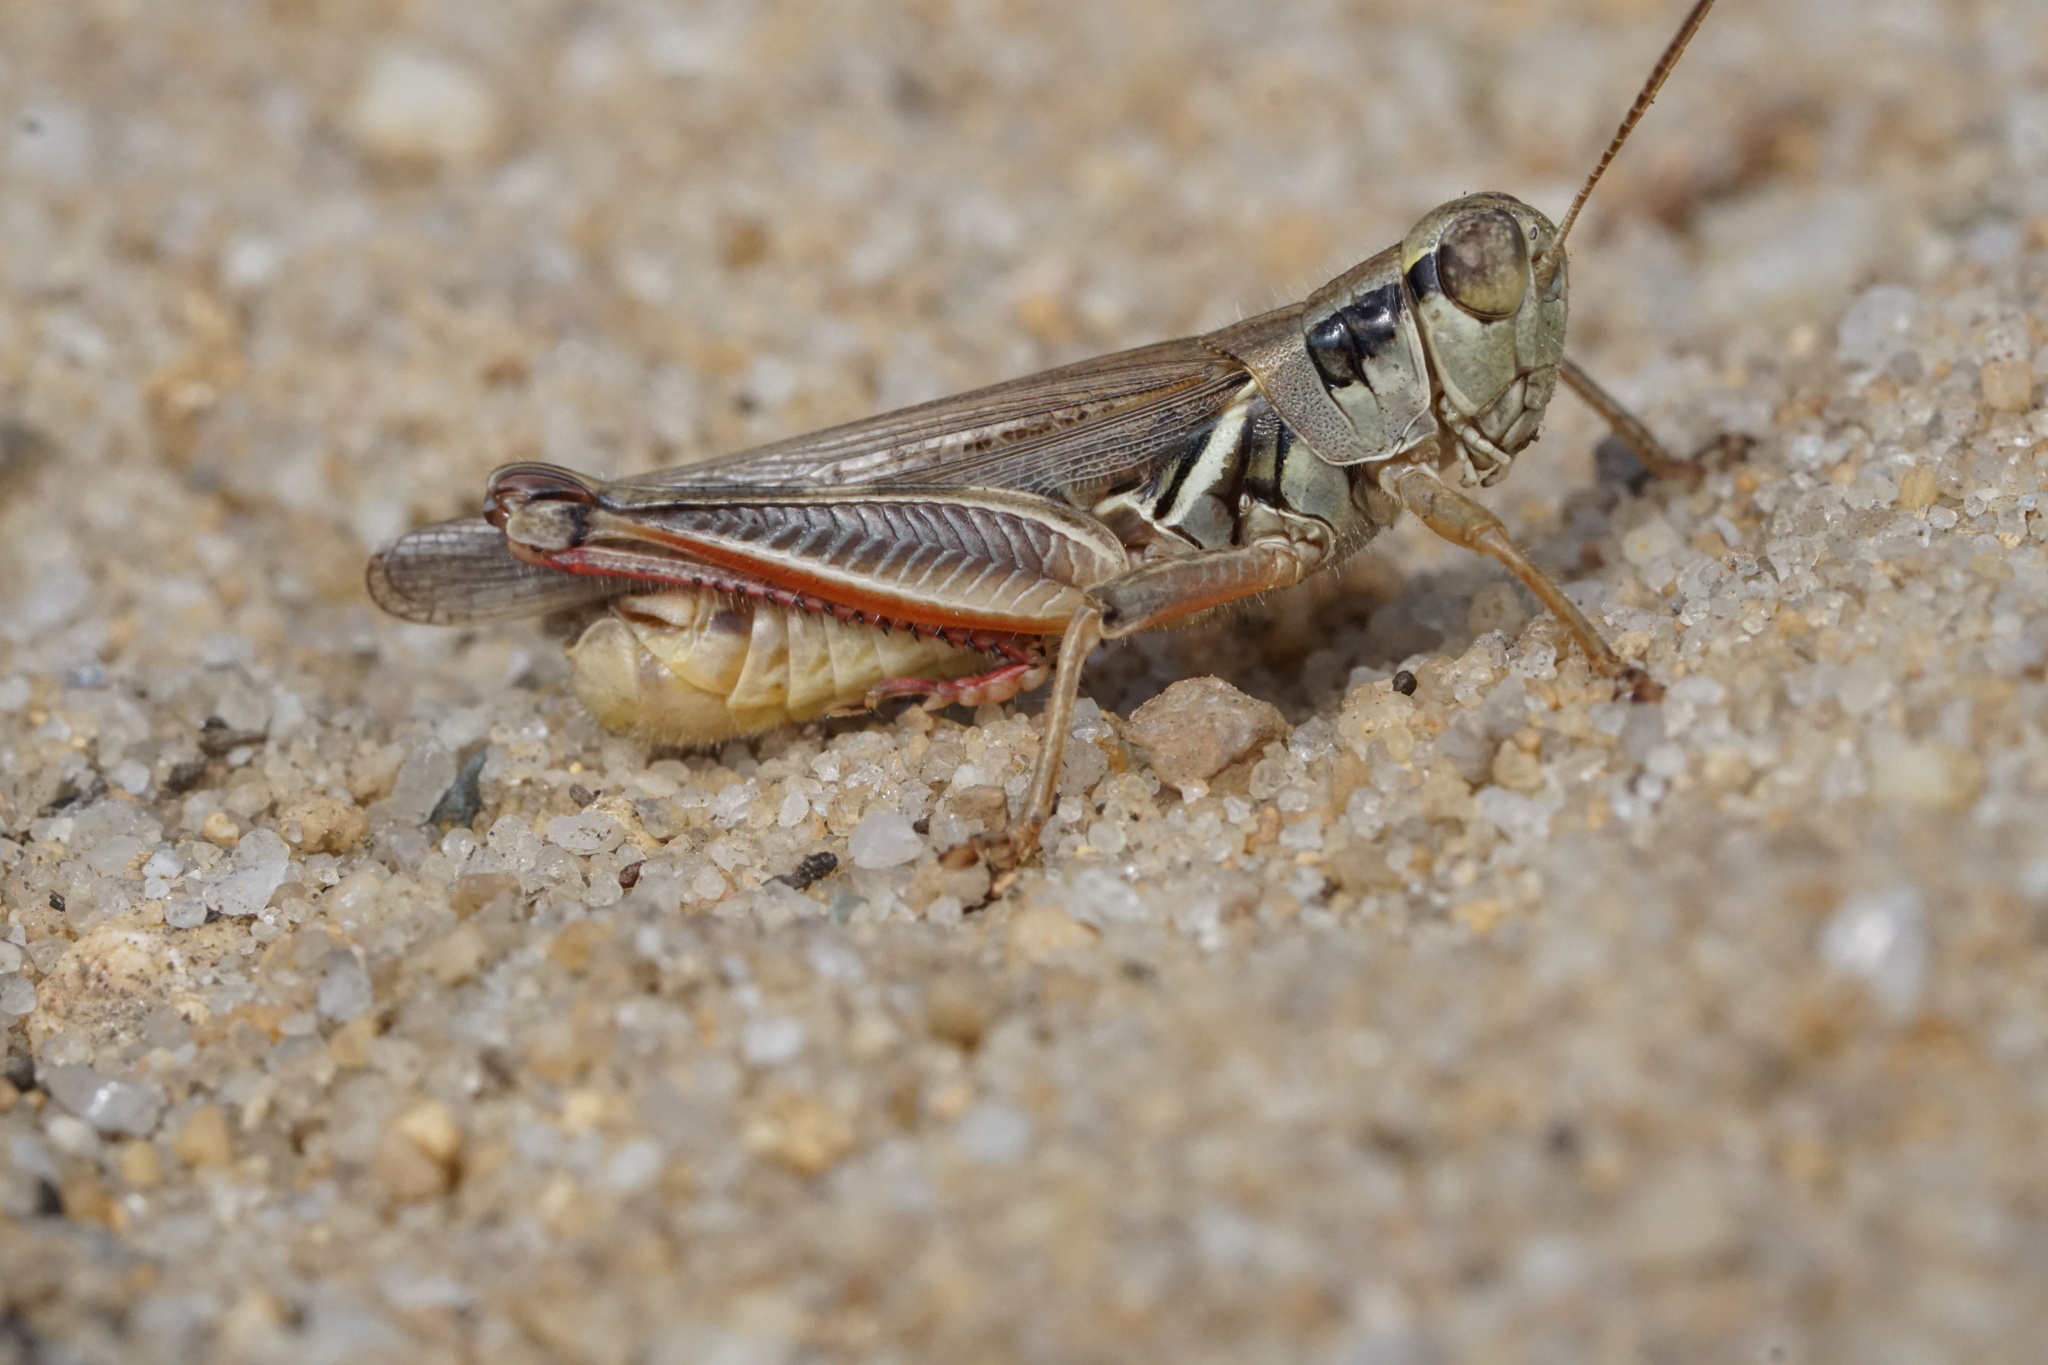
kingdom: Animalia
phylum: Arthropoda
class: Insecta
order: Orthoptera
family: Acrididae
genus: Melanoplus
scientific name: Melanoplus femurrubrum
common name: Red-legged grasshopper
